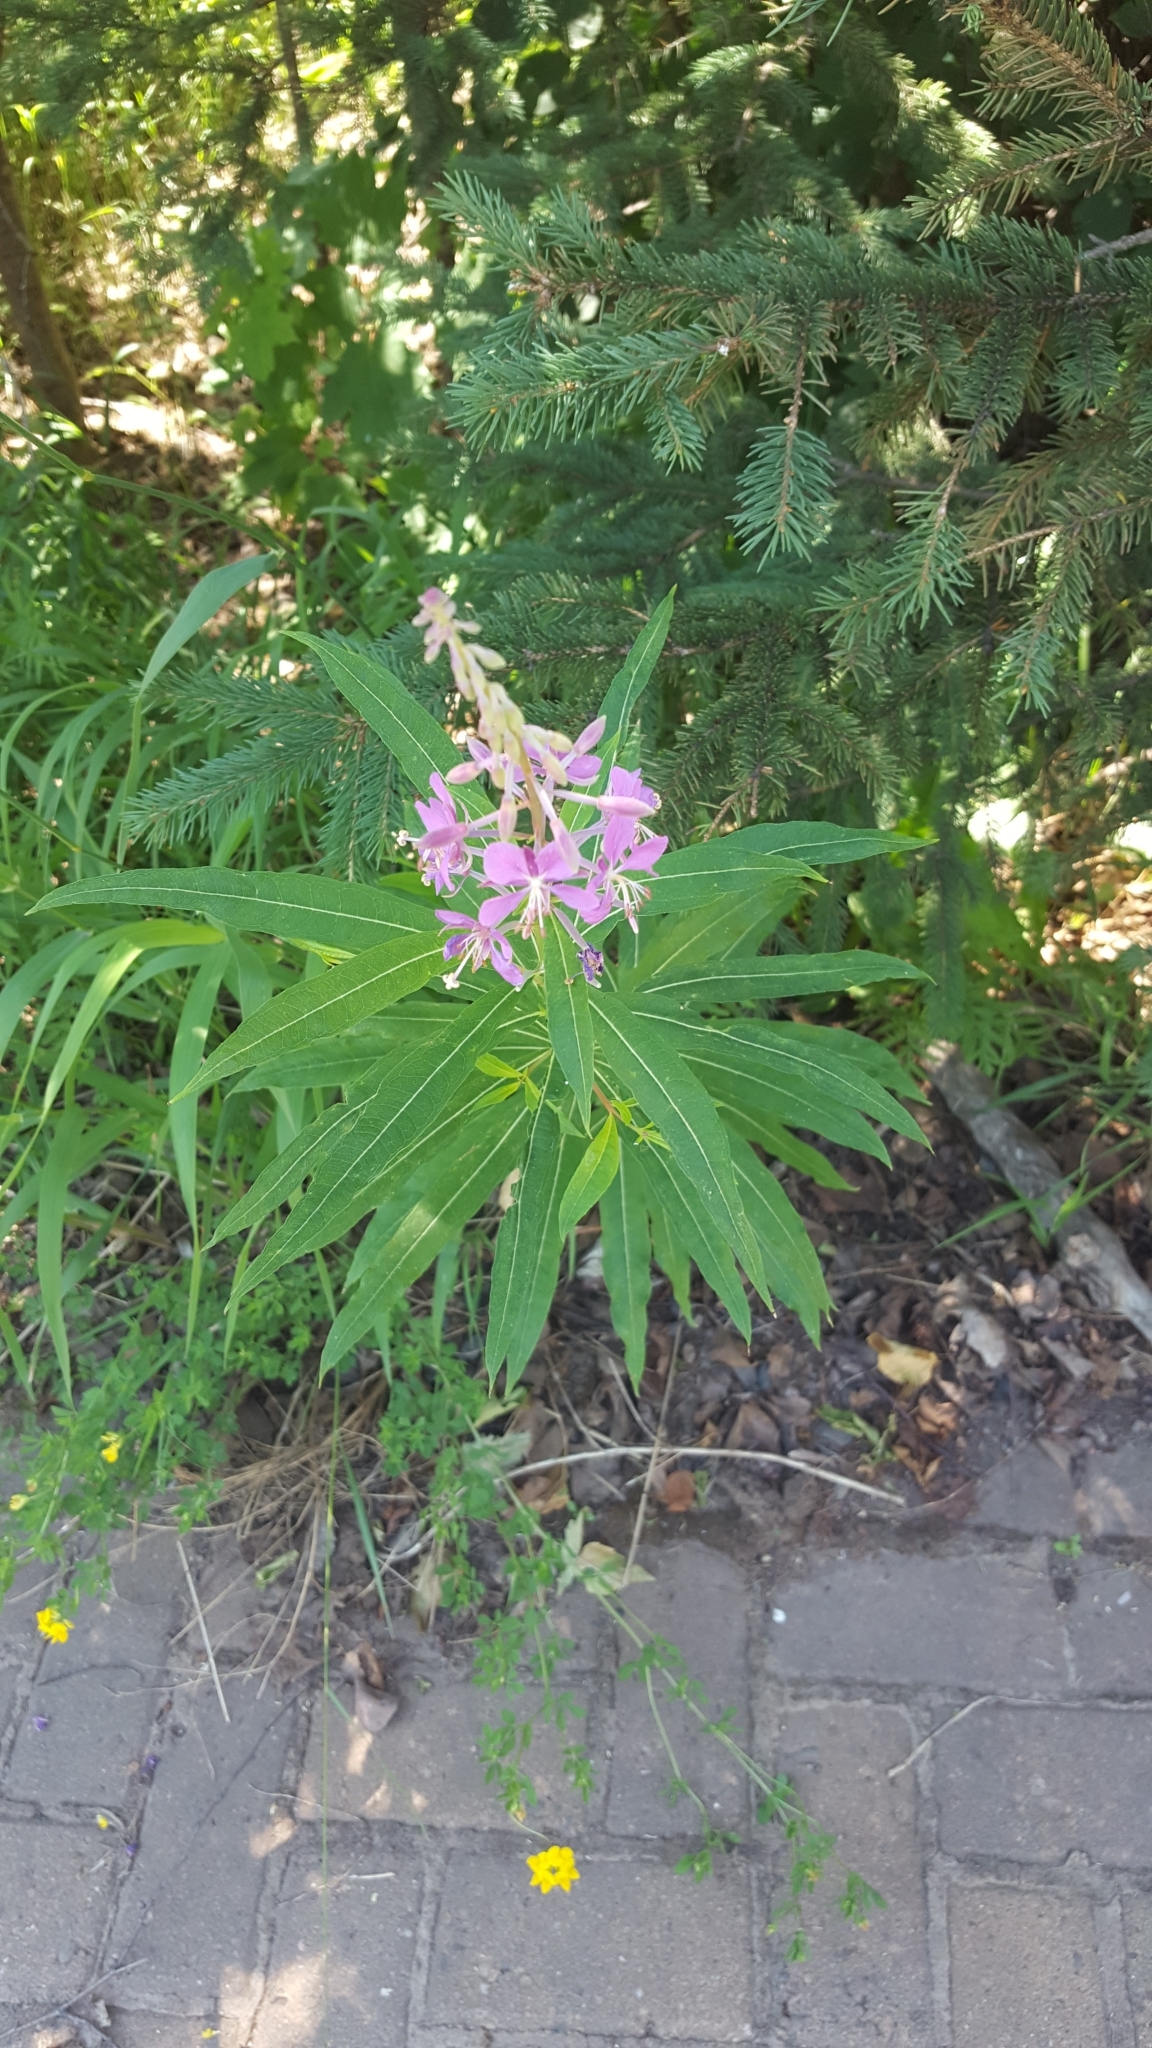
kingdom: Plantae
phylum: Tracheophyta
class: Magnoliopsida
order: Myrtales
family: Onagraceae
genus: Chamaenerion
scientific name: Chamaenerion angustifolium
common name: Fireweed
